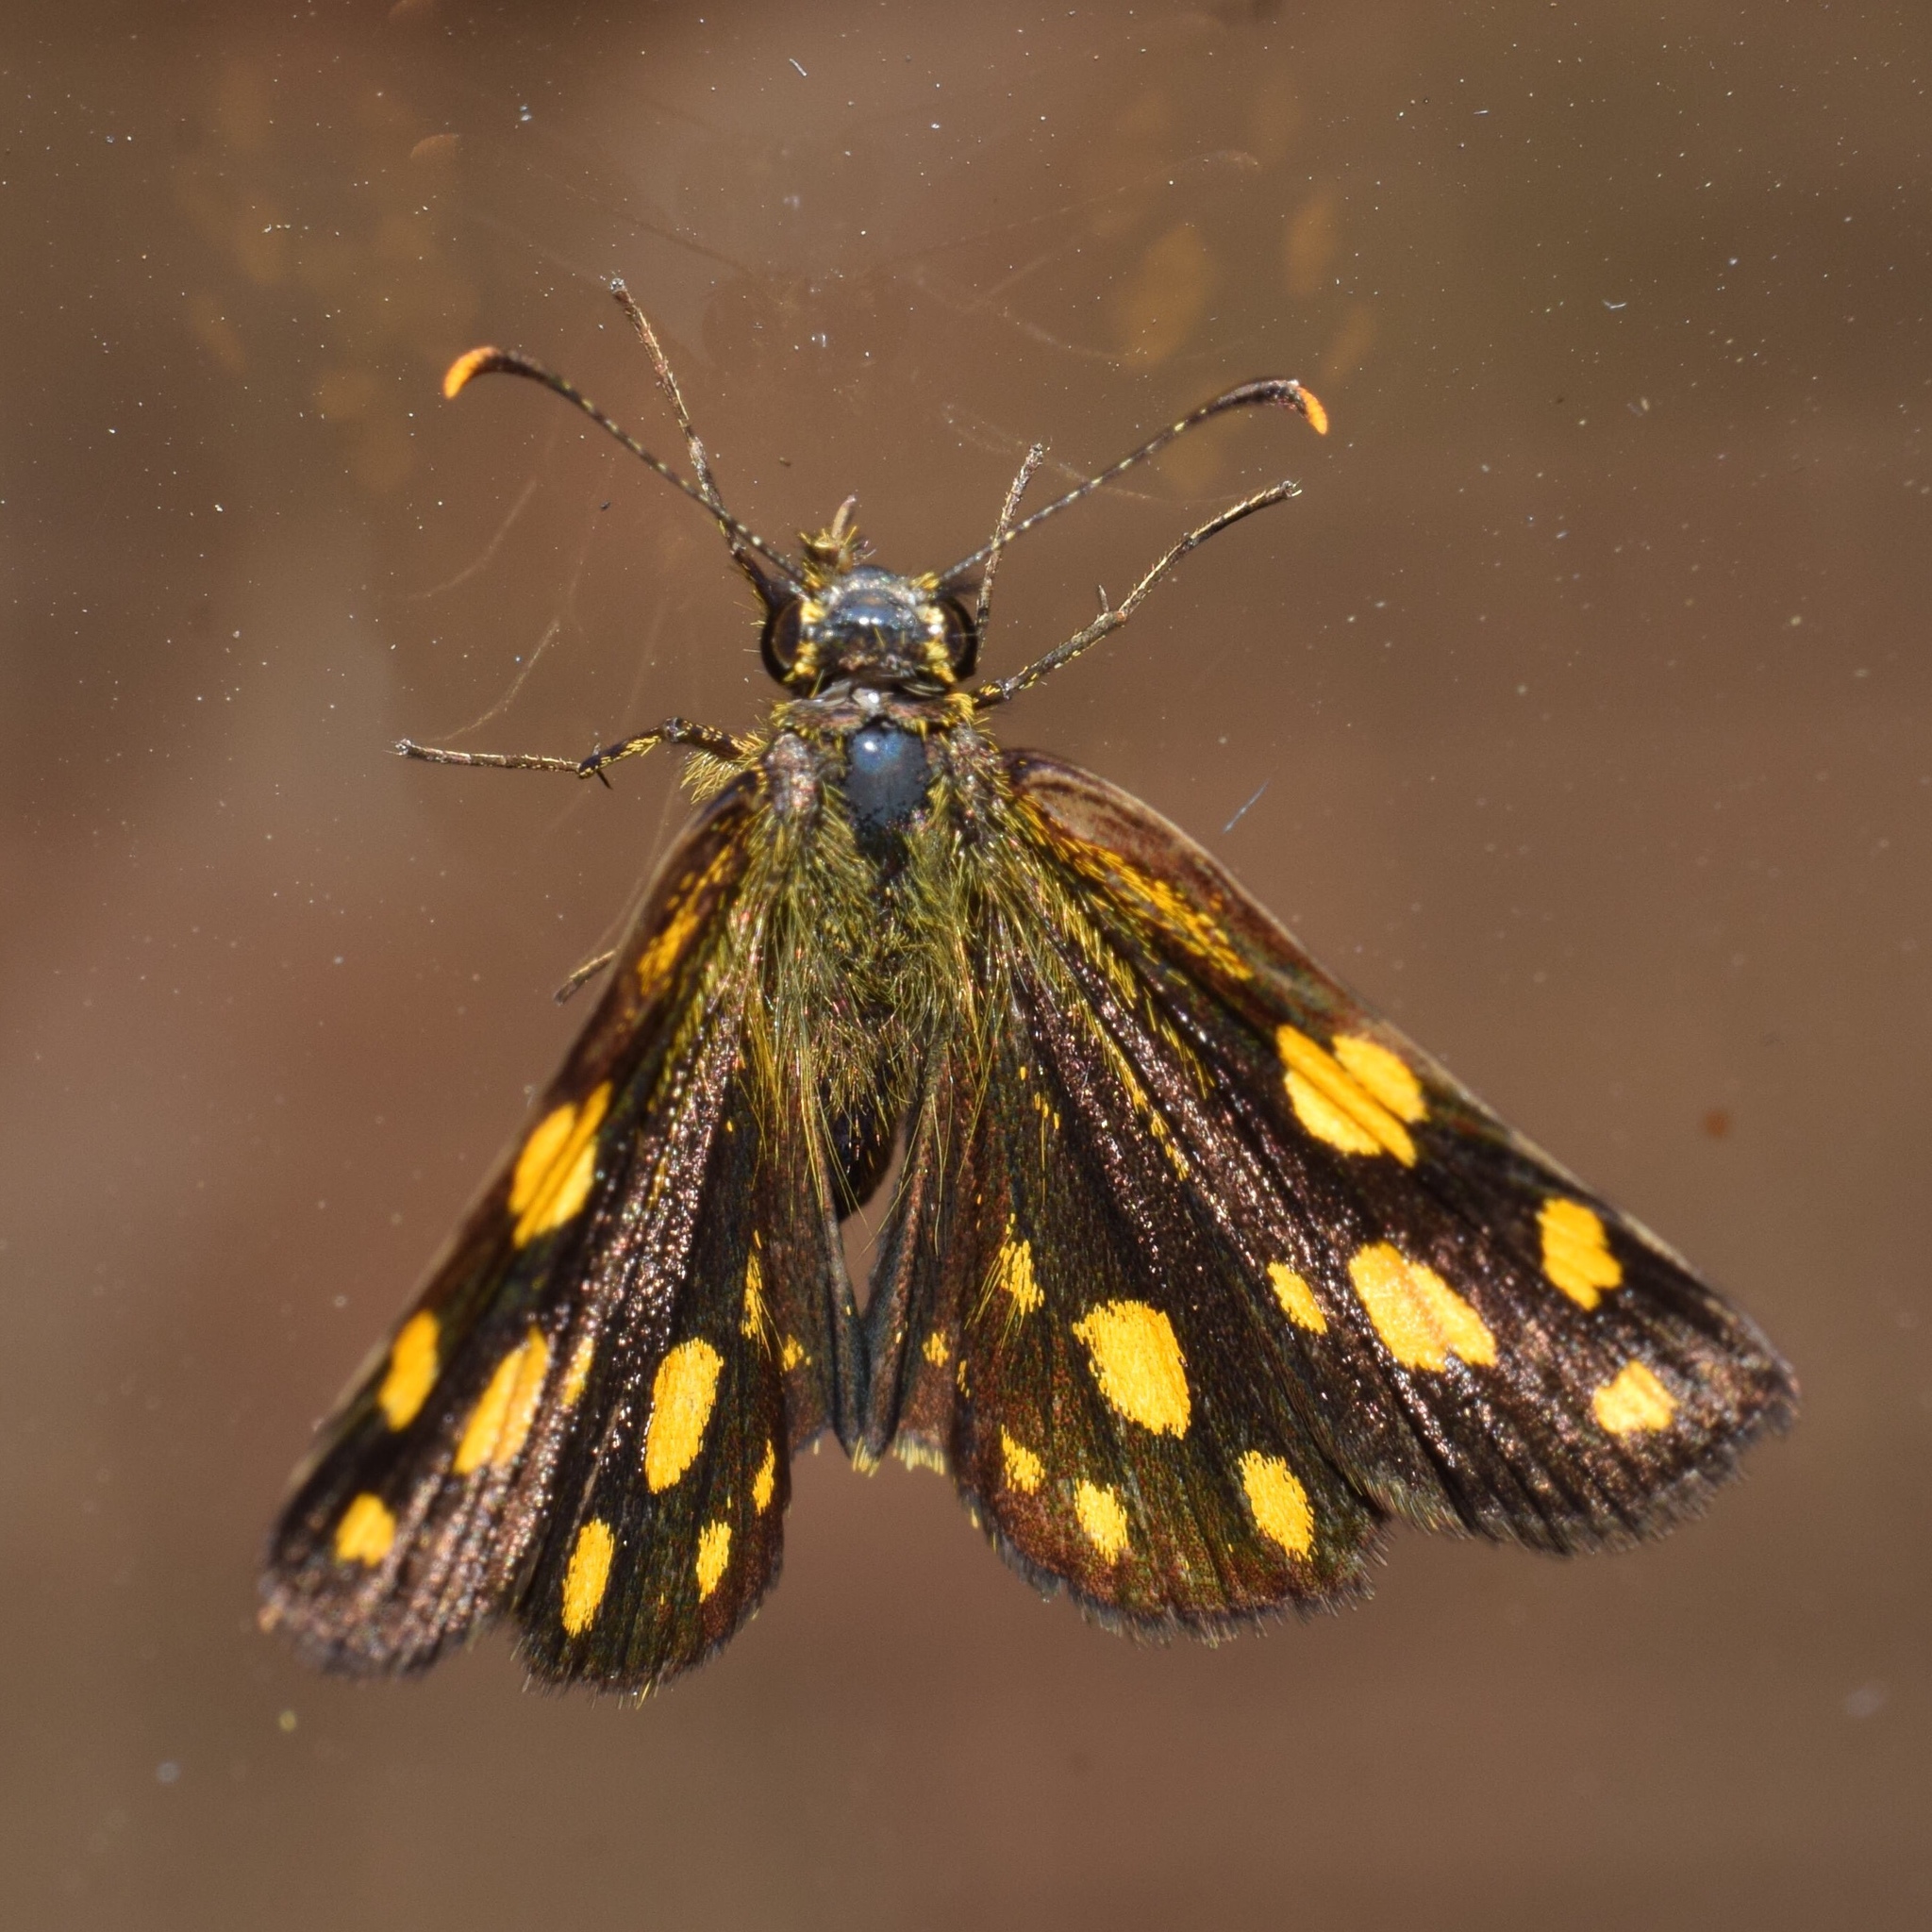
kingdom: Animalia
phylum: Arthropoda
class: Insecta
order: Lepidoptera
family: Hesperiidae
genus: Metisella
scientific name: Metisella metis
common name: Western gold-spotted sylph
